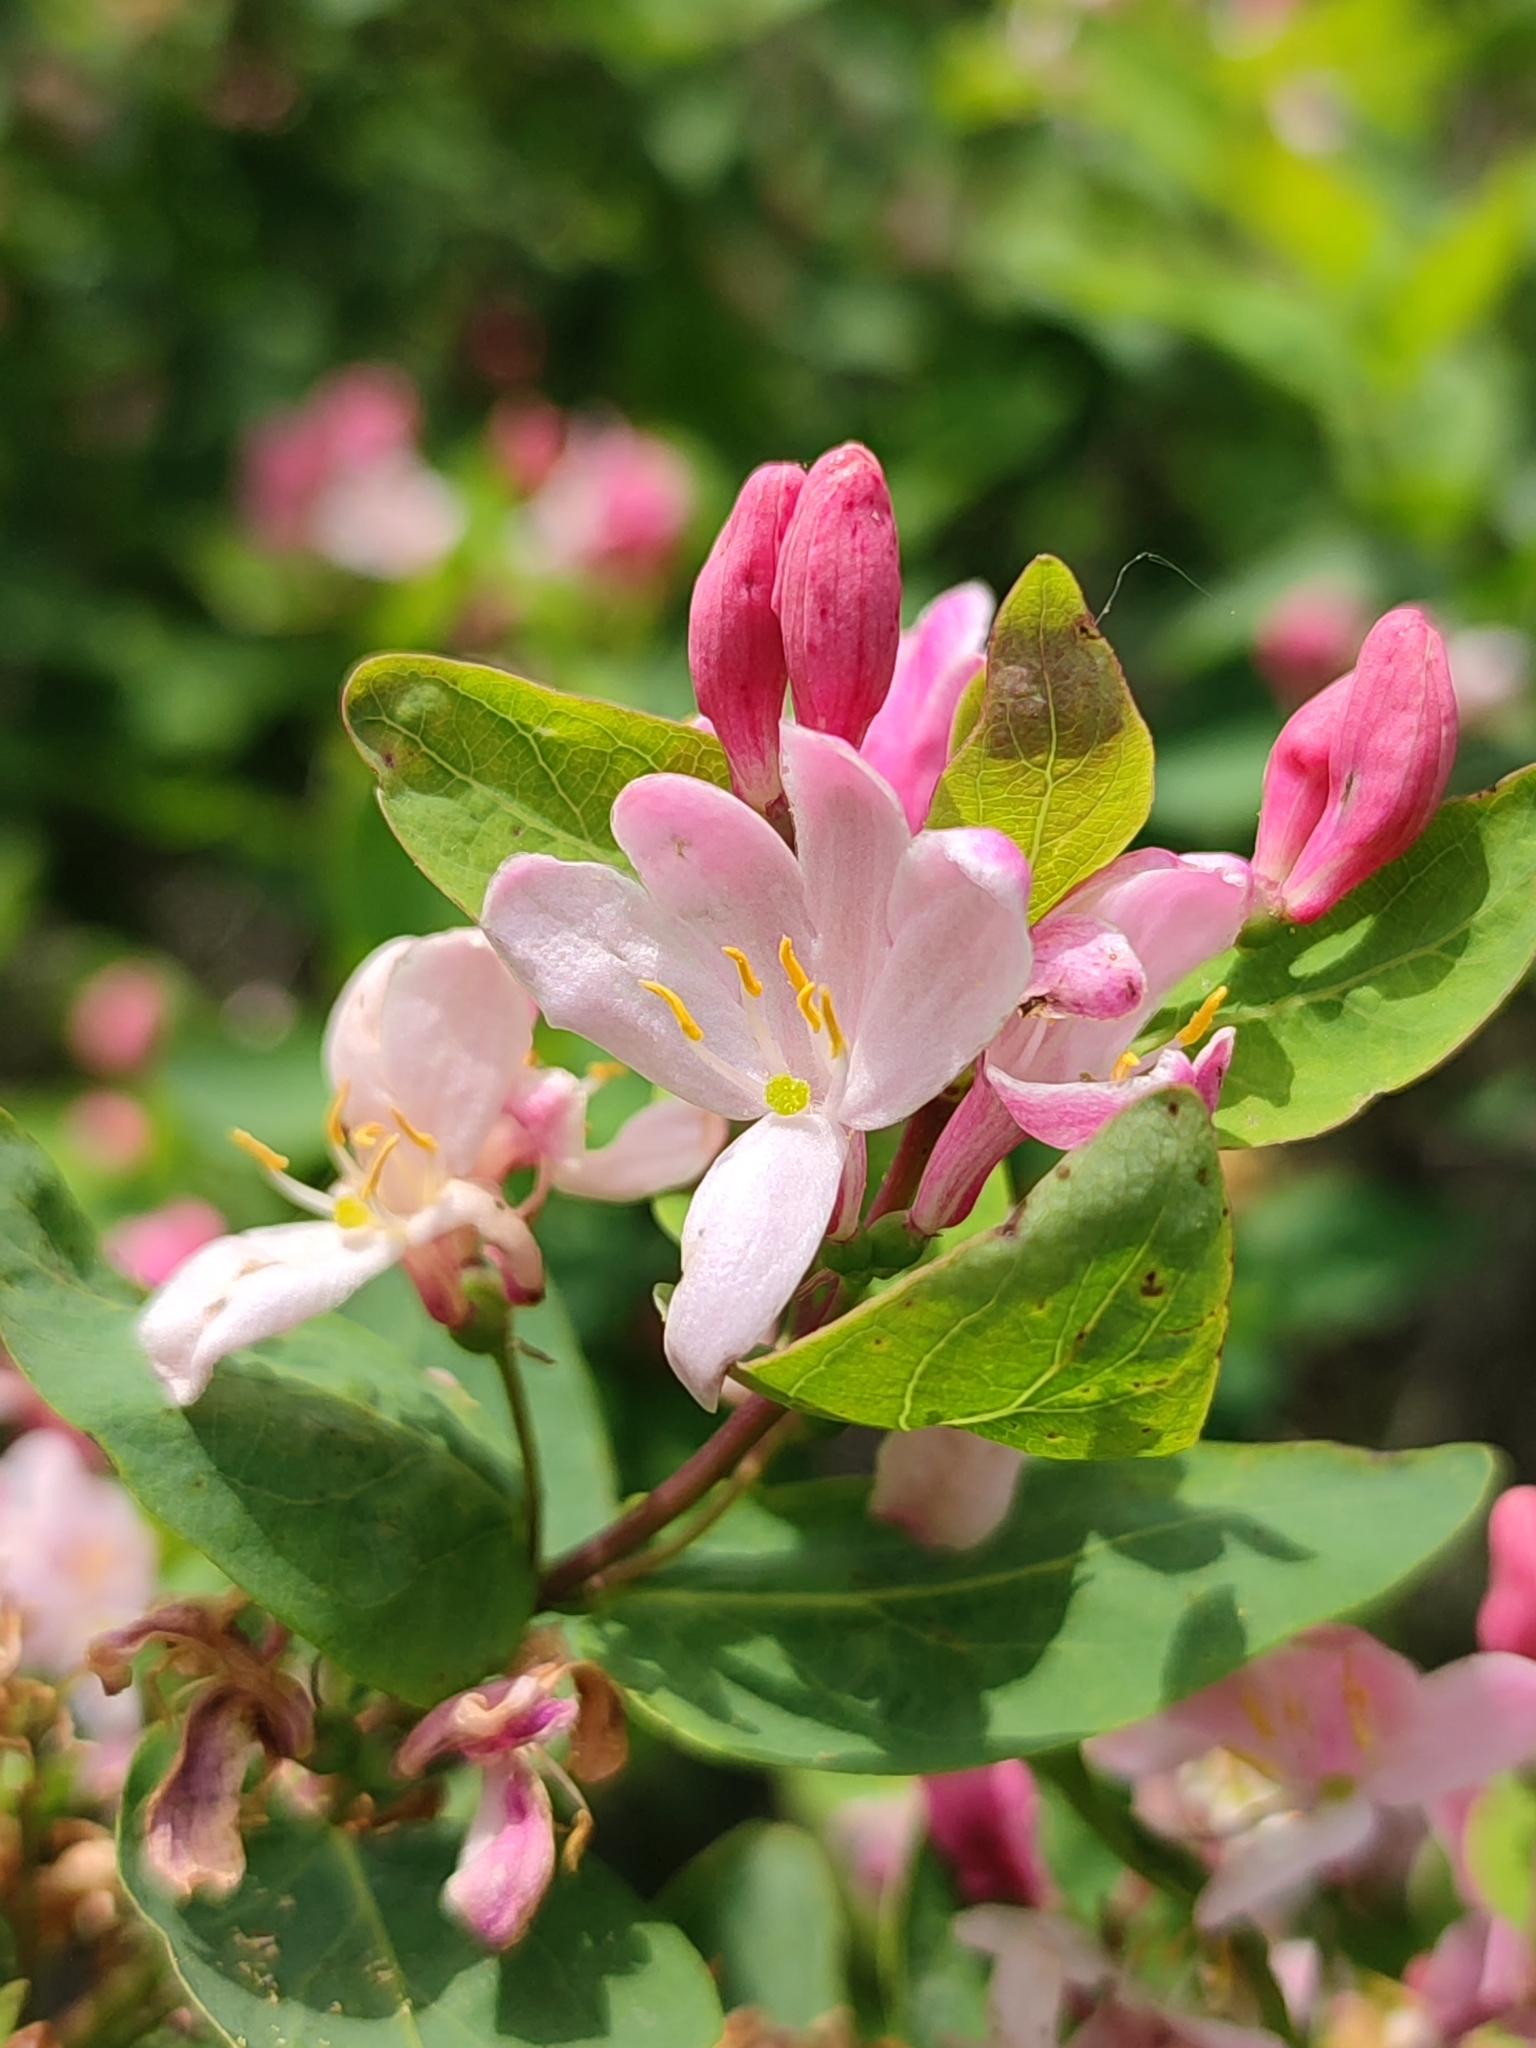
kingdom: Plantae
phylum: Tracheophyta
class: Magnoliopsida
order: Dipsacales
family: Caprifoliaceae
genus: Lonicera
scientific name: Lonicera tatarica
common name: Tatarian honeysuckle
